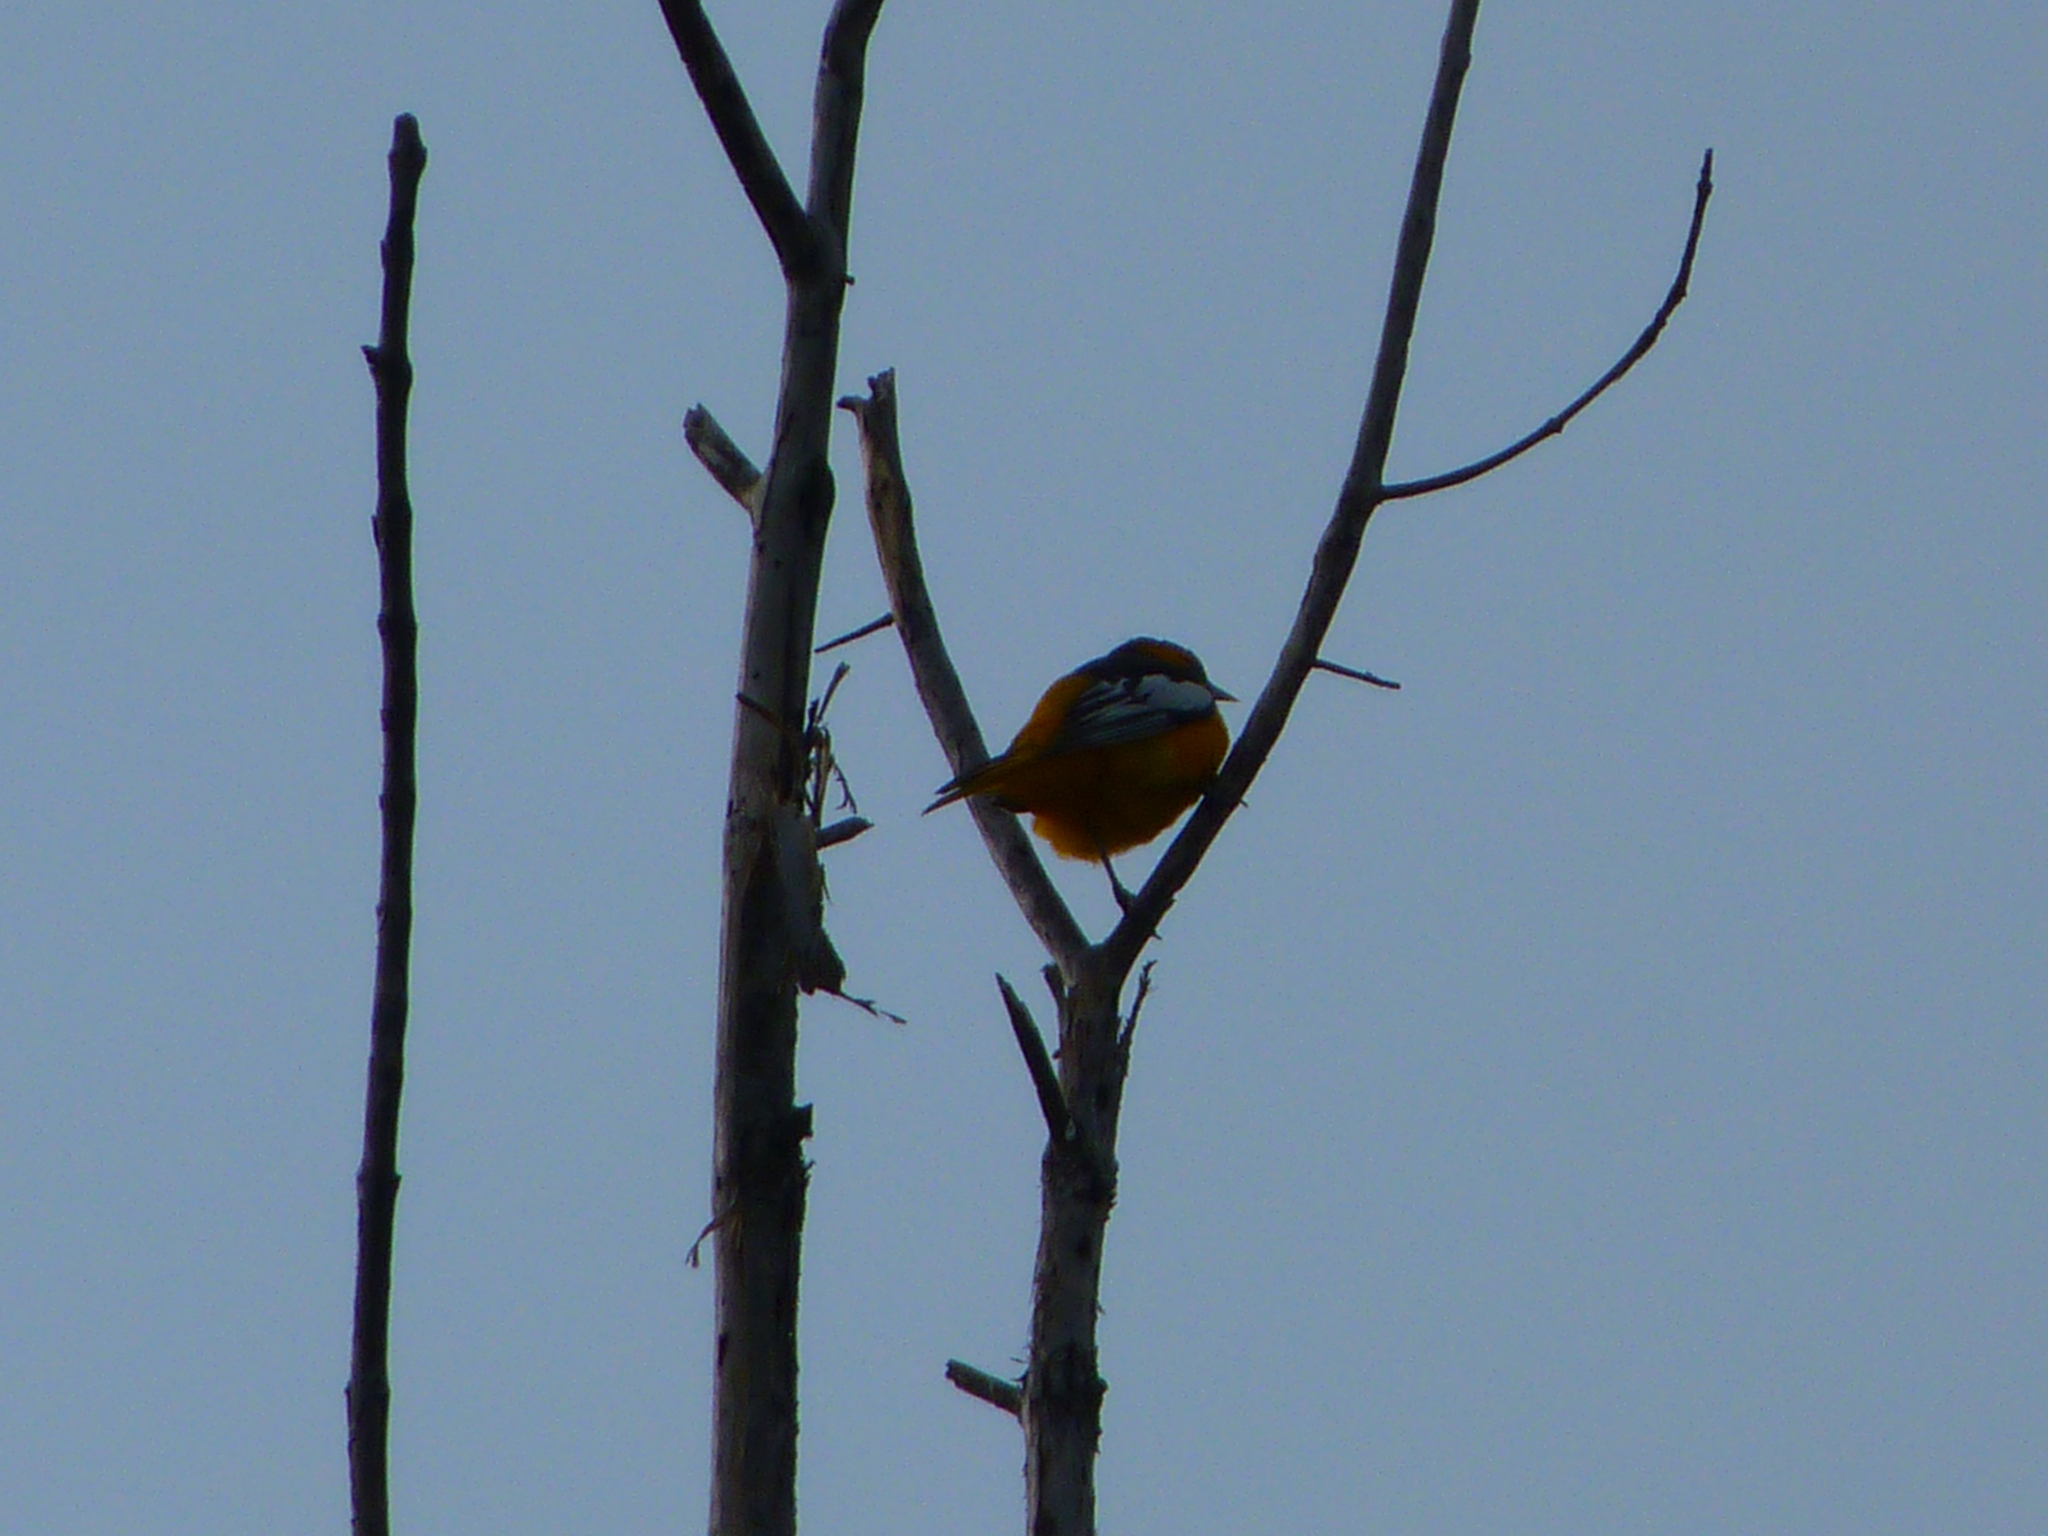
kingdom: Animalia
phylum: Chordata
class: Aves
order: Passeriformes
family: Icteridae
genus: Icterus
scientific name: Icterus bullockii
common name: Bullock's oriole
